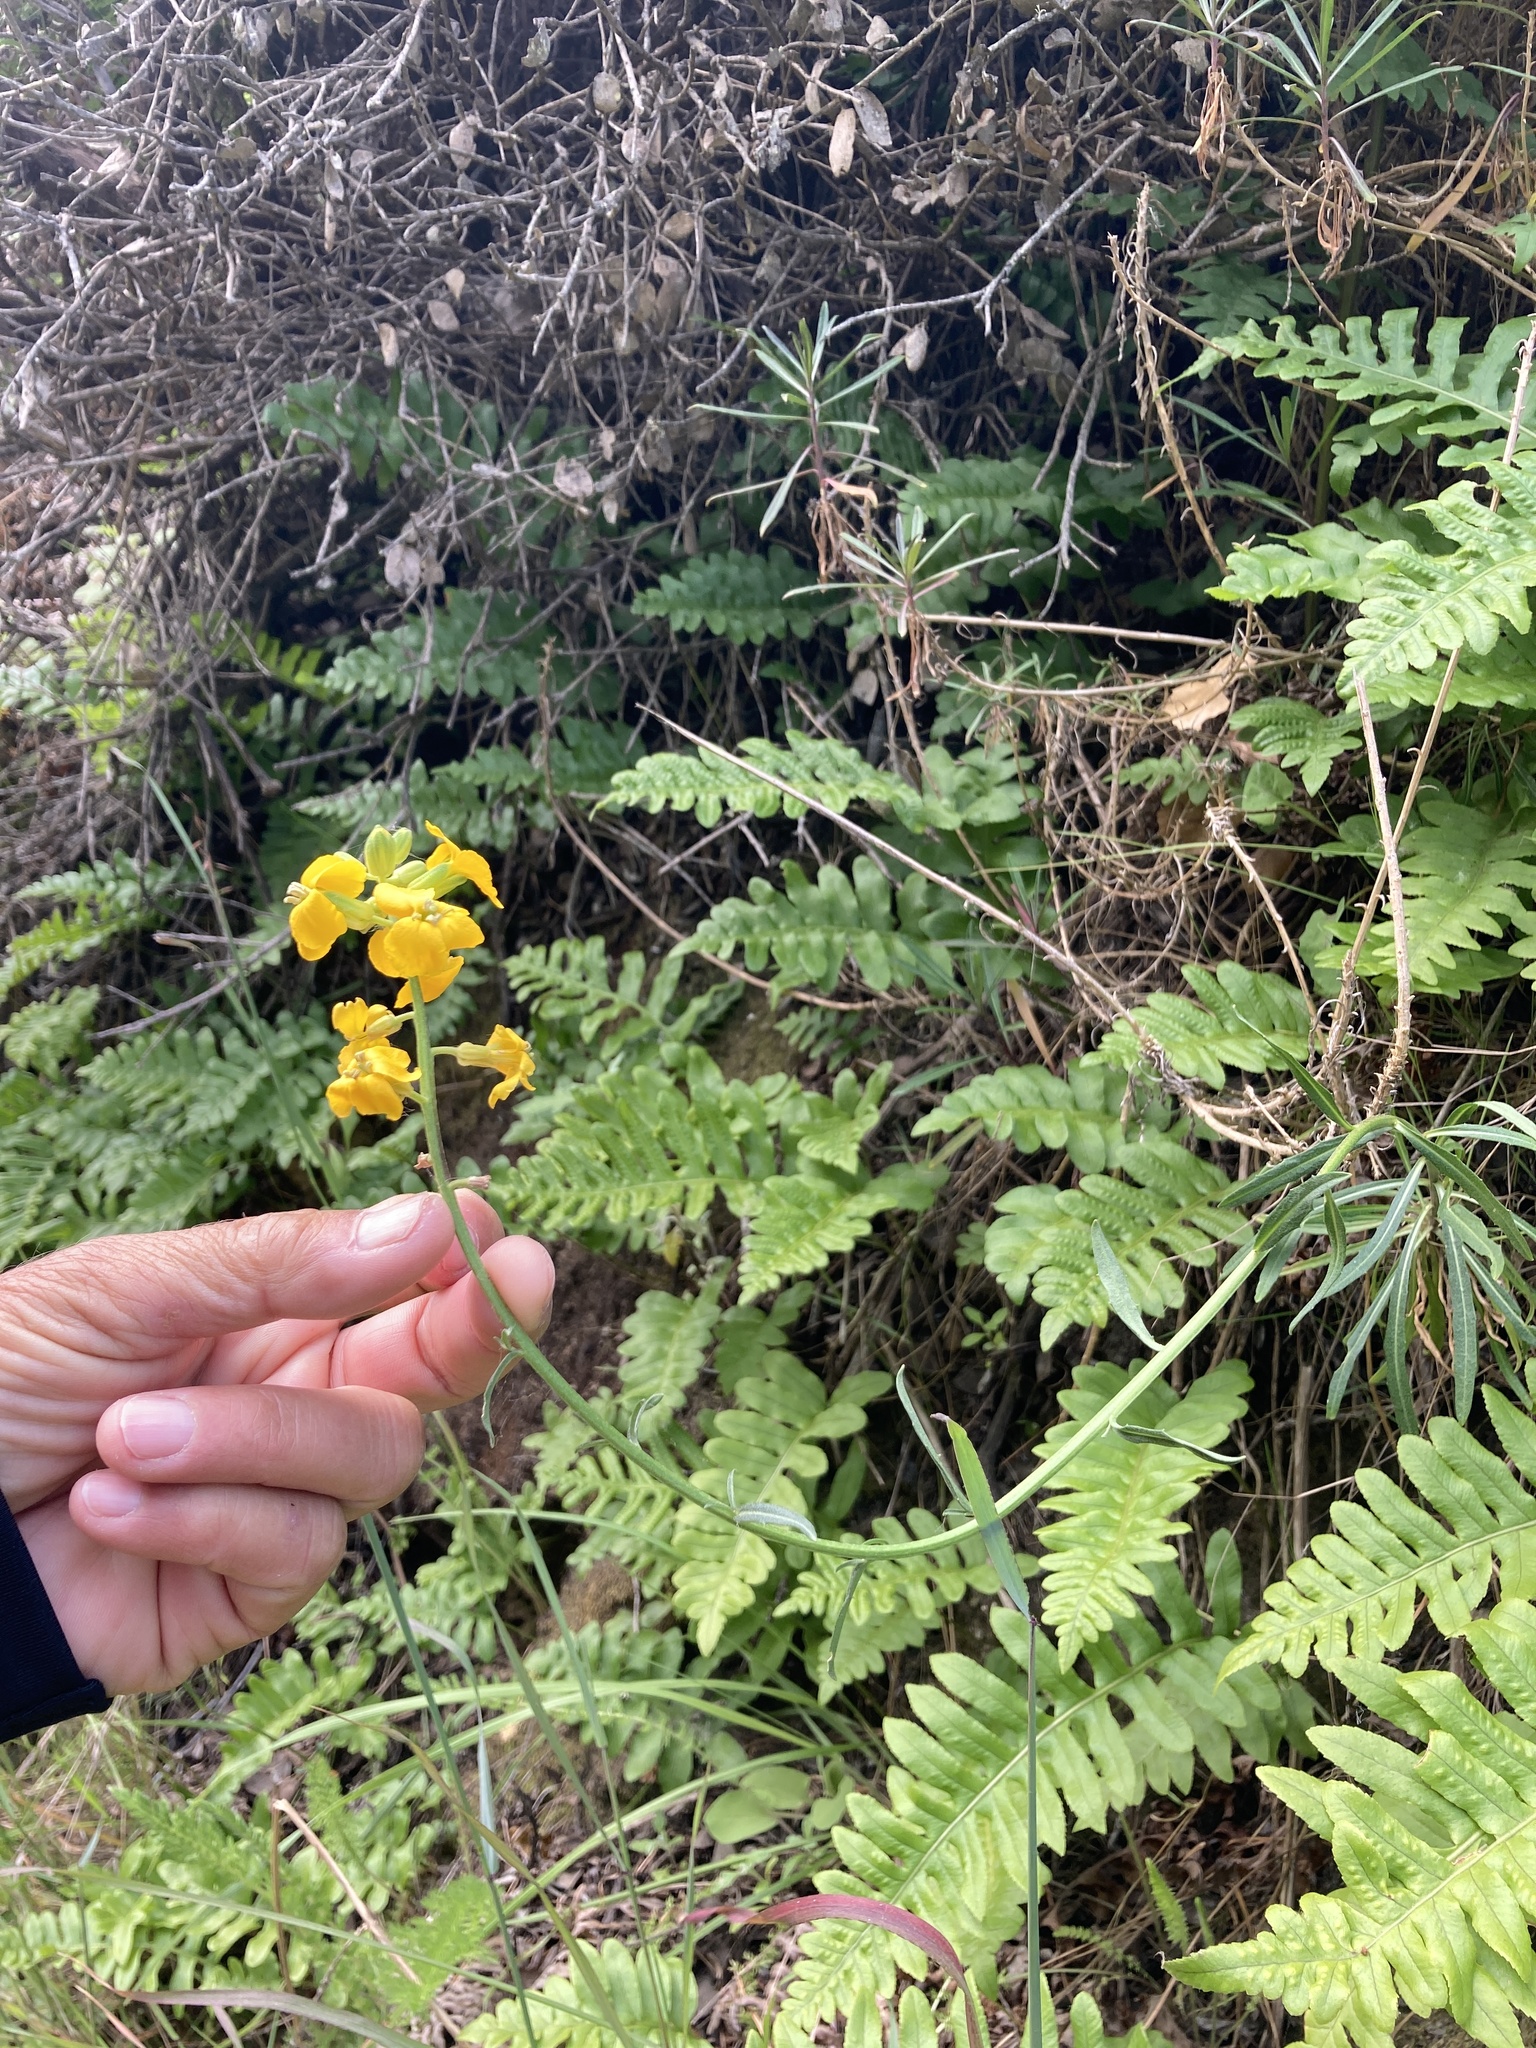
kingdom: Plantae
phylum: Tracheophyta
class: Magnoliopsida
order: Brassicales
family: Brassicaceae
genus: Erysimum
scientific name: Erysimum suffrutescens
